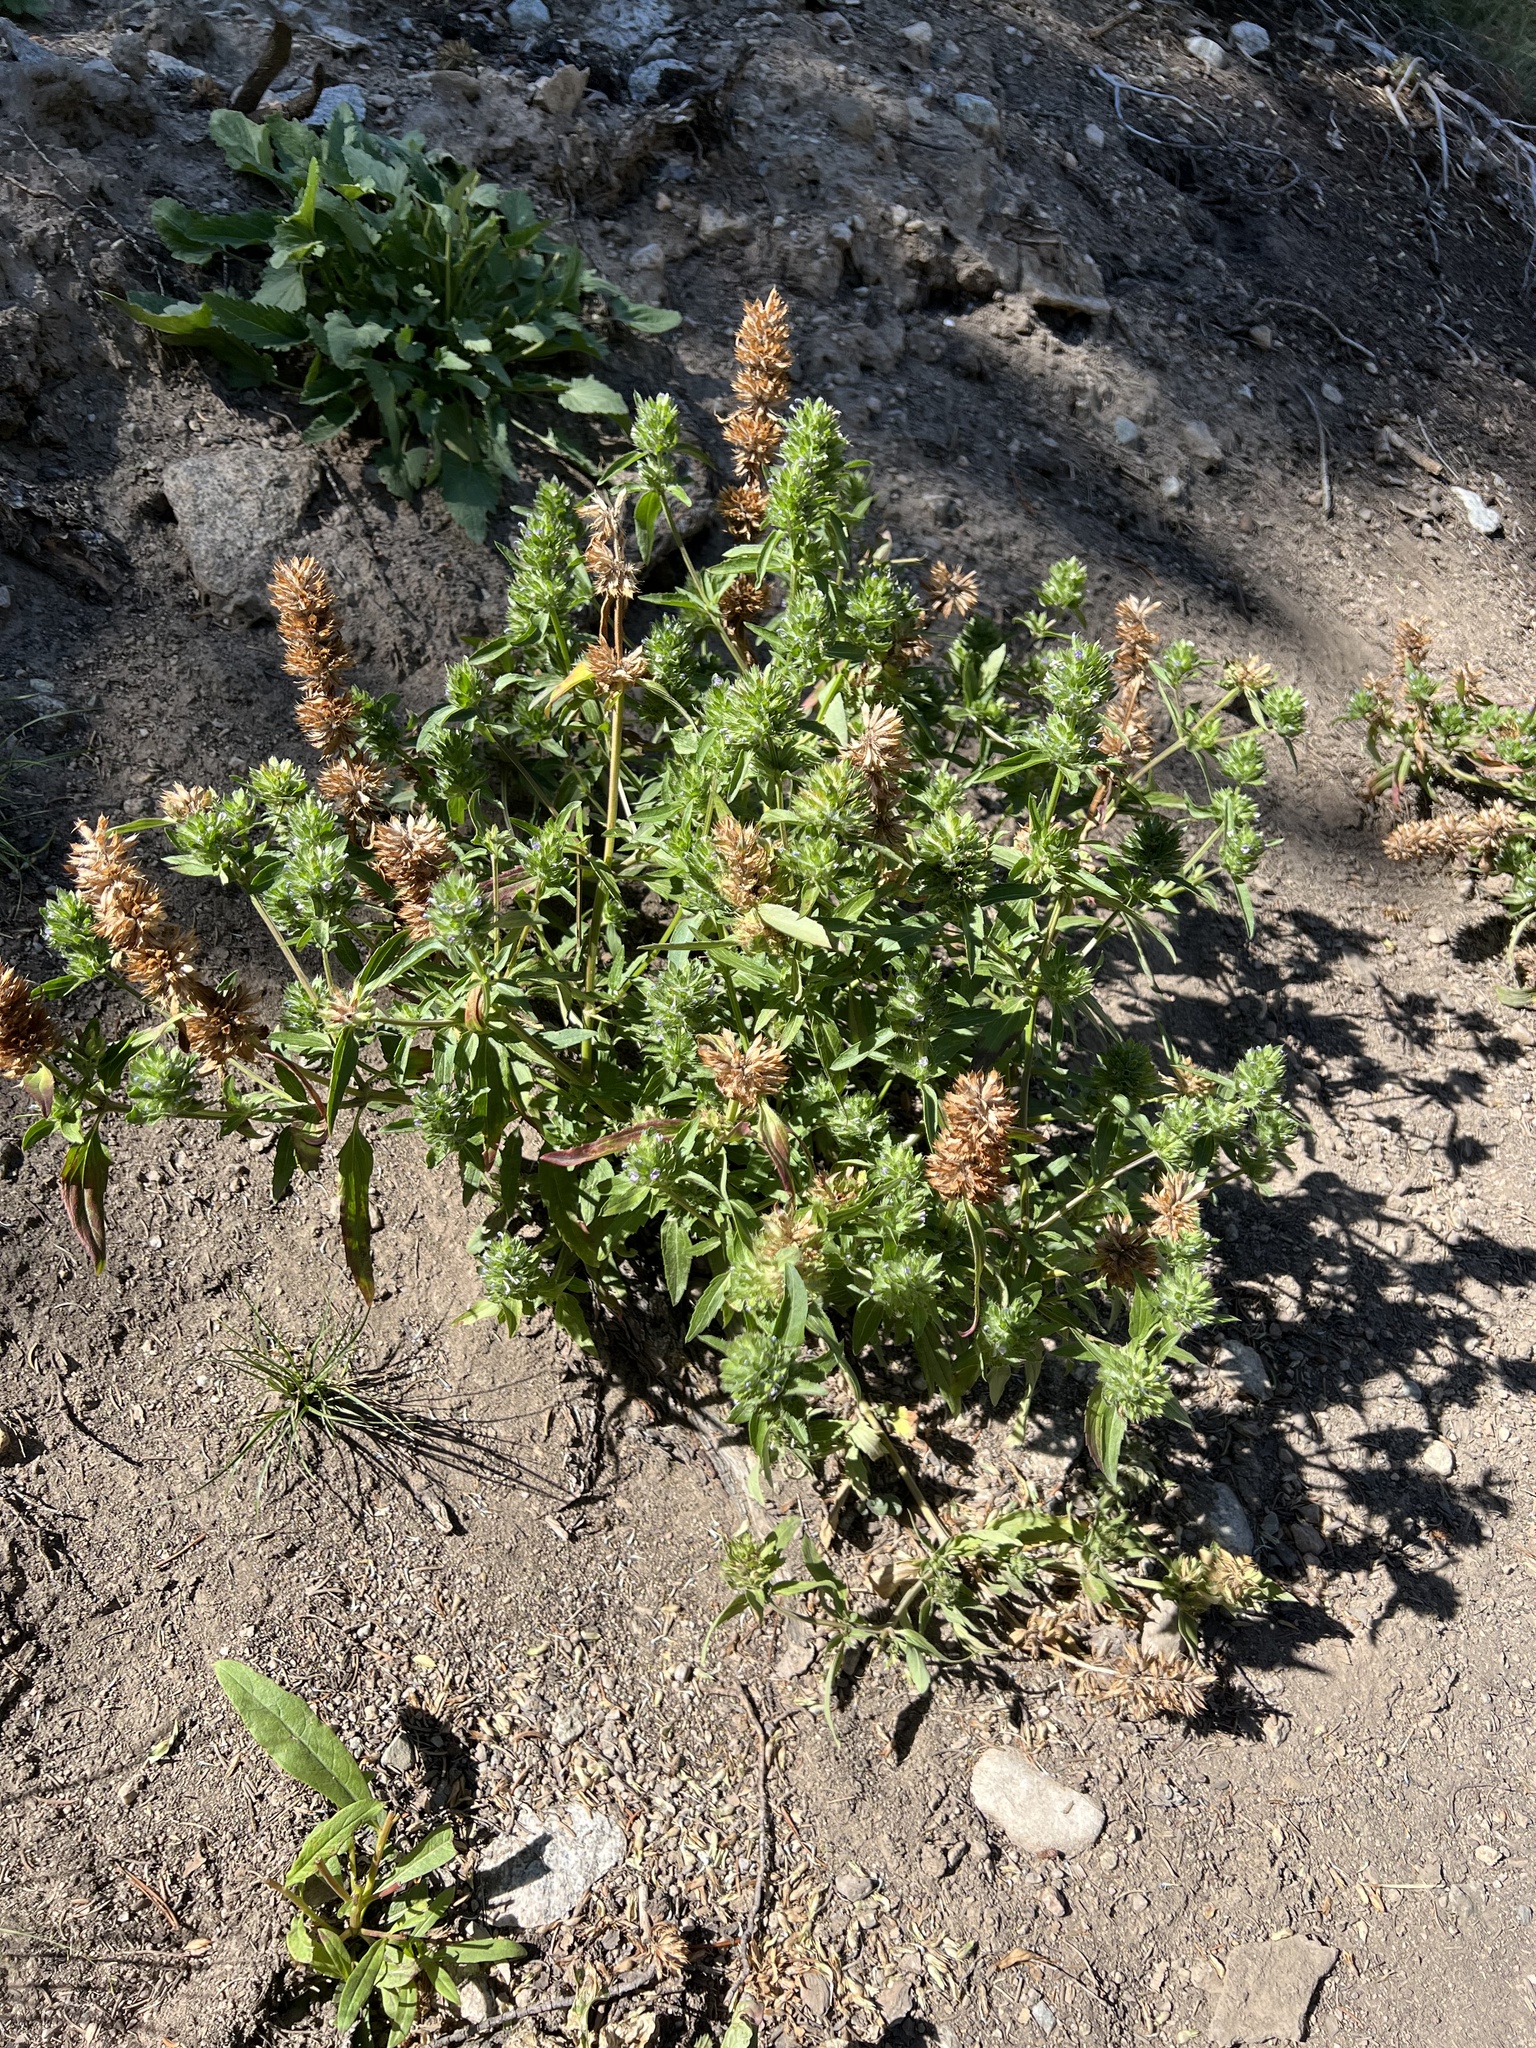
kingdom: Plantae
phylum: Tracheophyta
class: Magnoliopsida
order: Lamiales
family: Lamiaceae
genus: Dracocephalum
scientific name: Dracocephalum parviflorum
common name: American dragonhead
